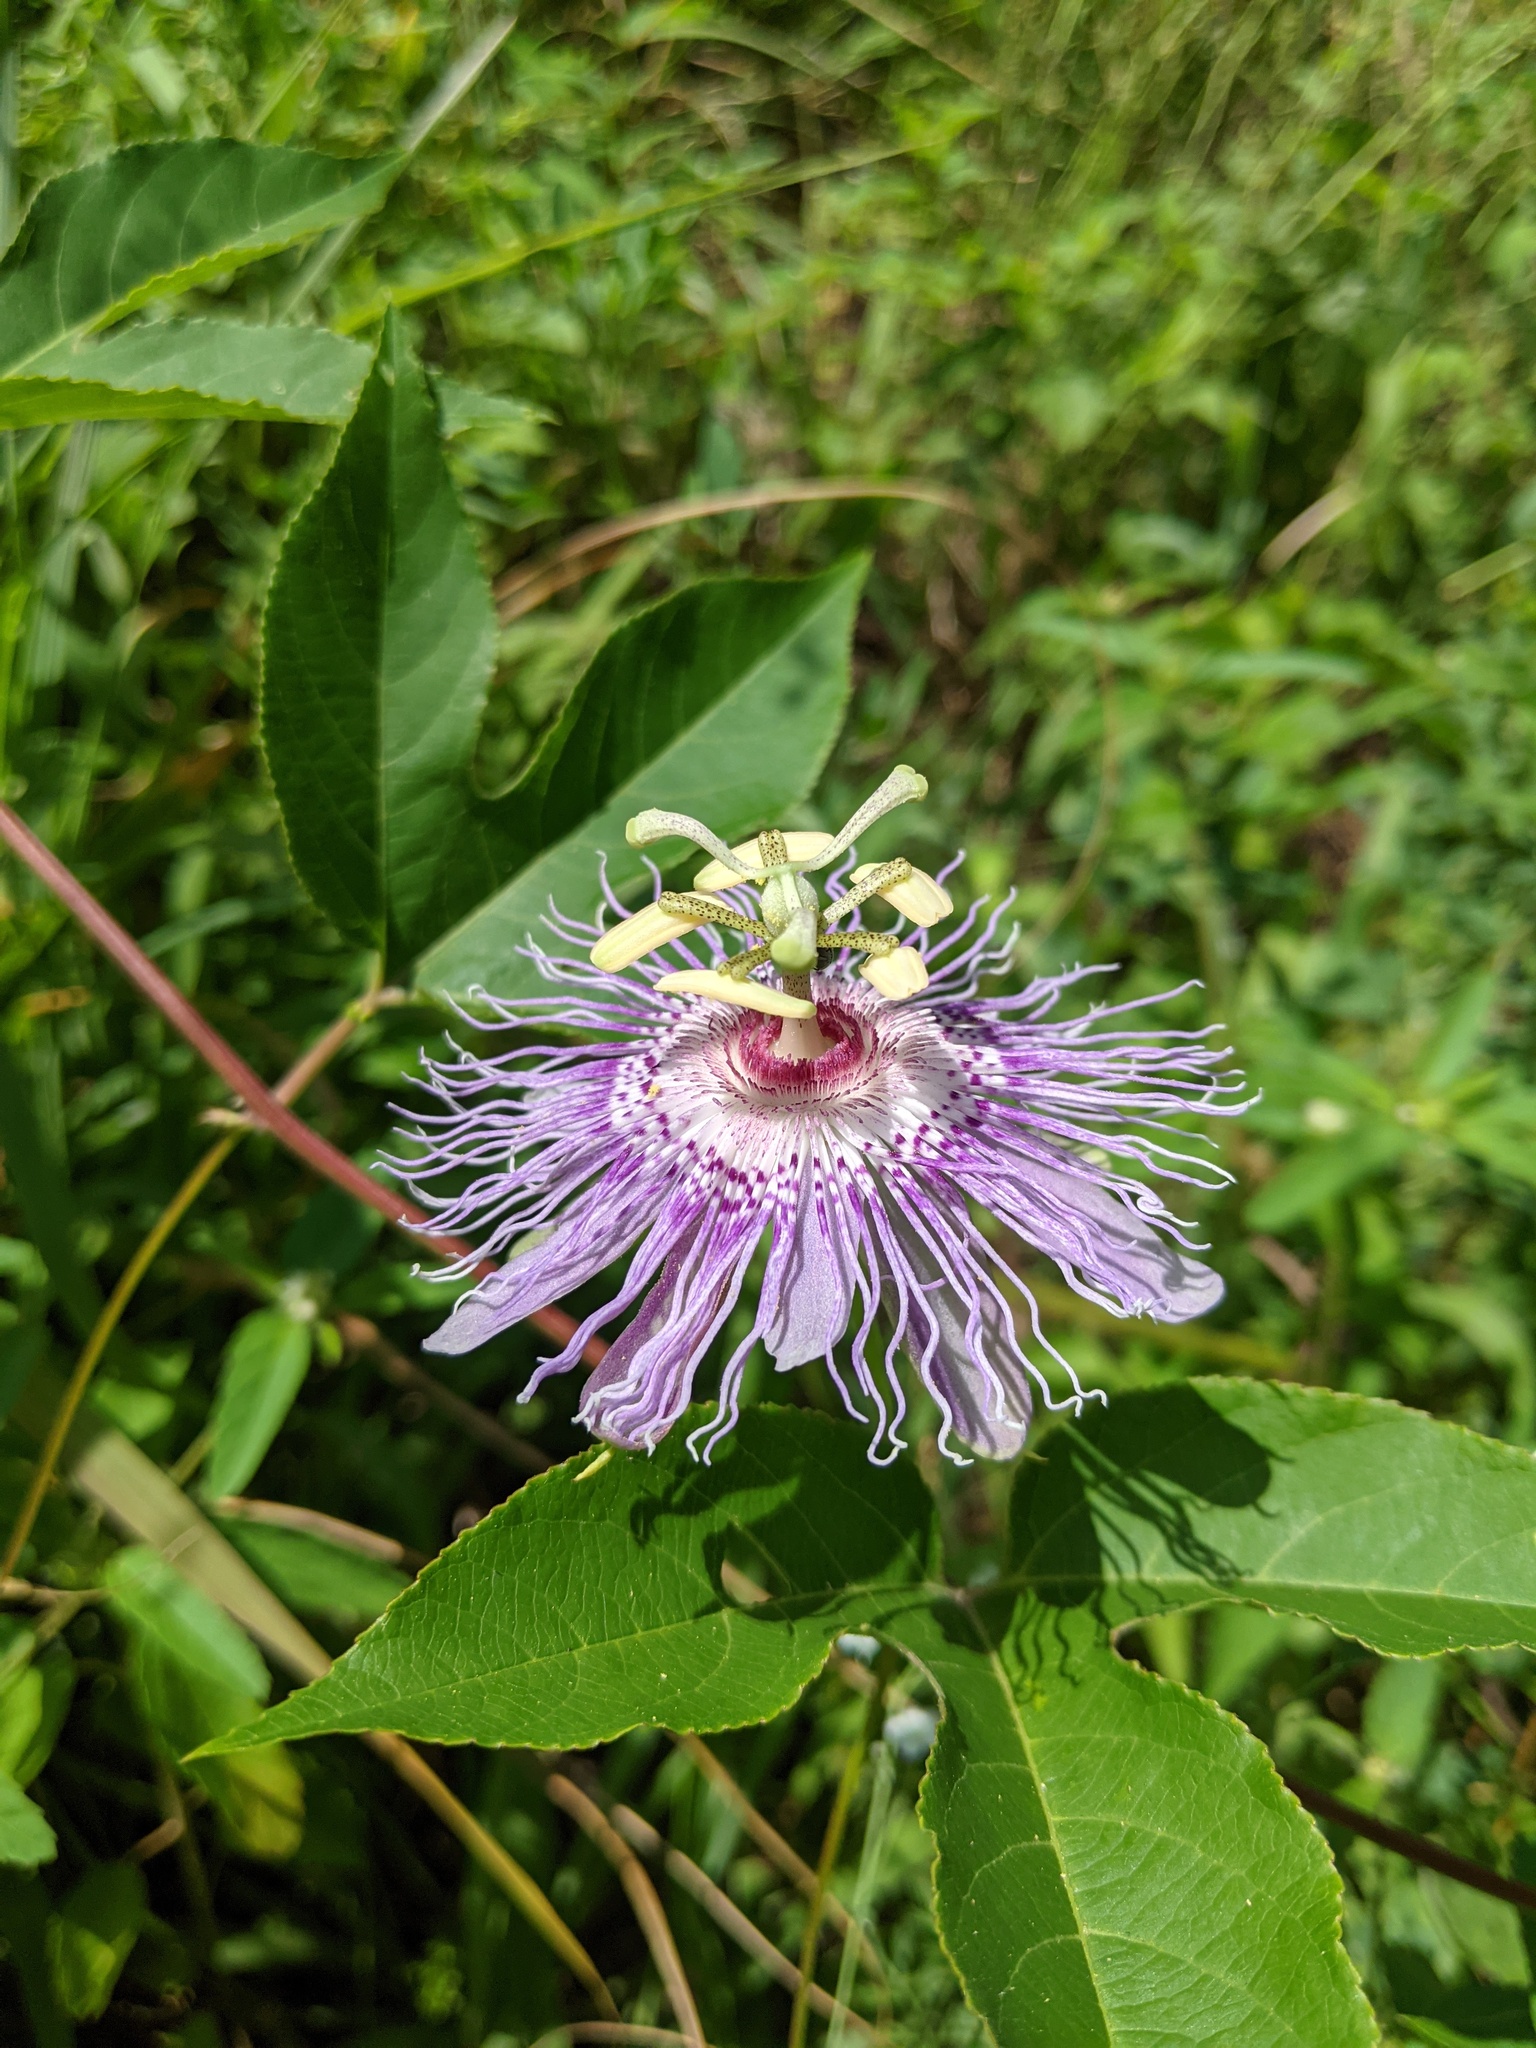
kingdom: Plantae
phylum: Tracheophyta
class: Magnoliopsida
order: Malpighiales
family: Passifloraceae
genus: Passiflora
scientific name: Passiflora incarnata
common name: Apricot-vine
